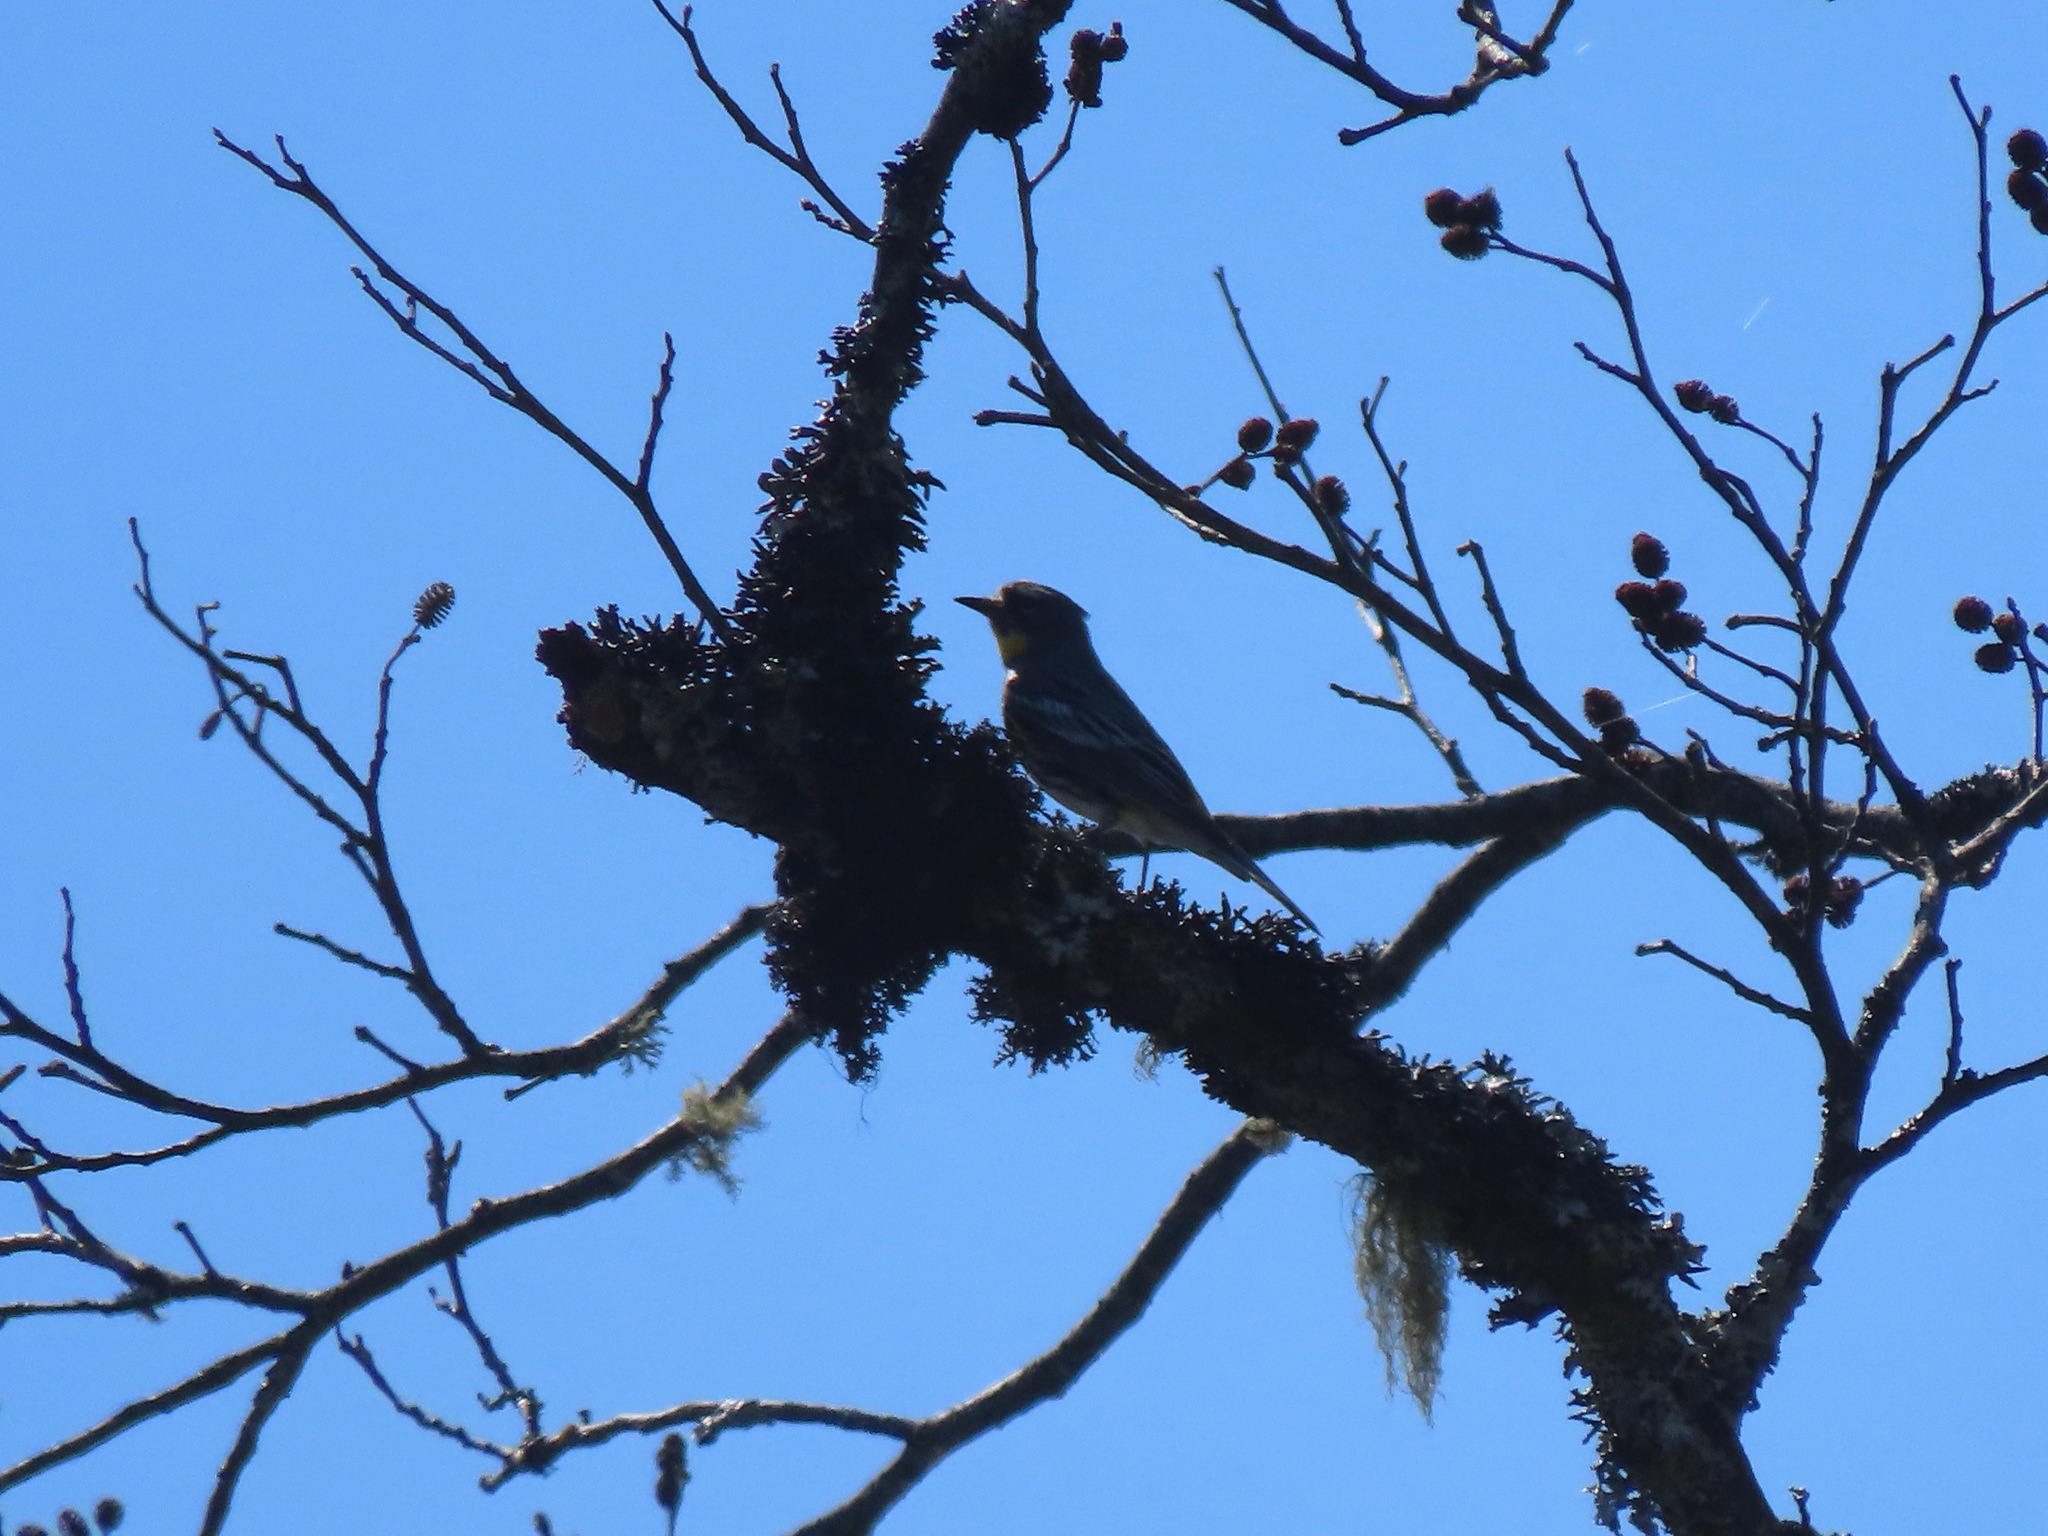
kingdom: Animalia
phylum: Chordata
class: Aves
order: Passeriformes
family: Parulidae
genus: Setophaga
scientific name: Setophaga coronata
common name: Myrtle warbler
